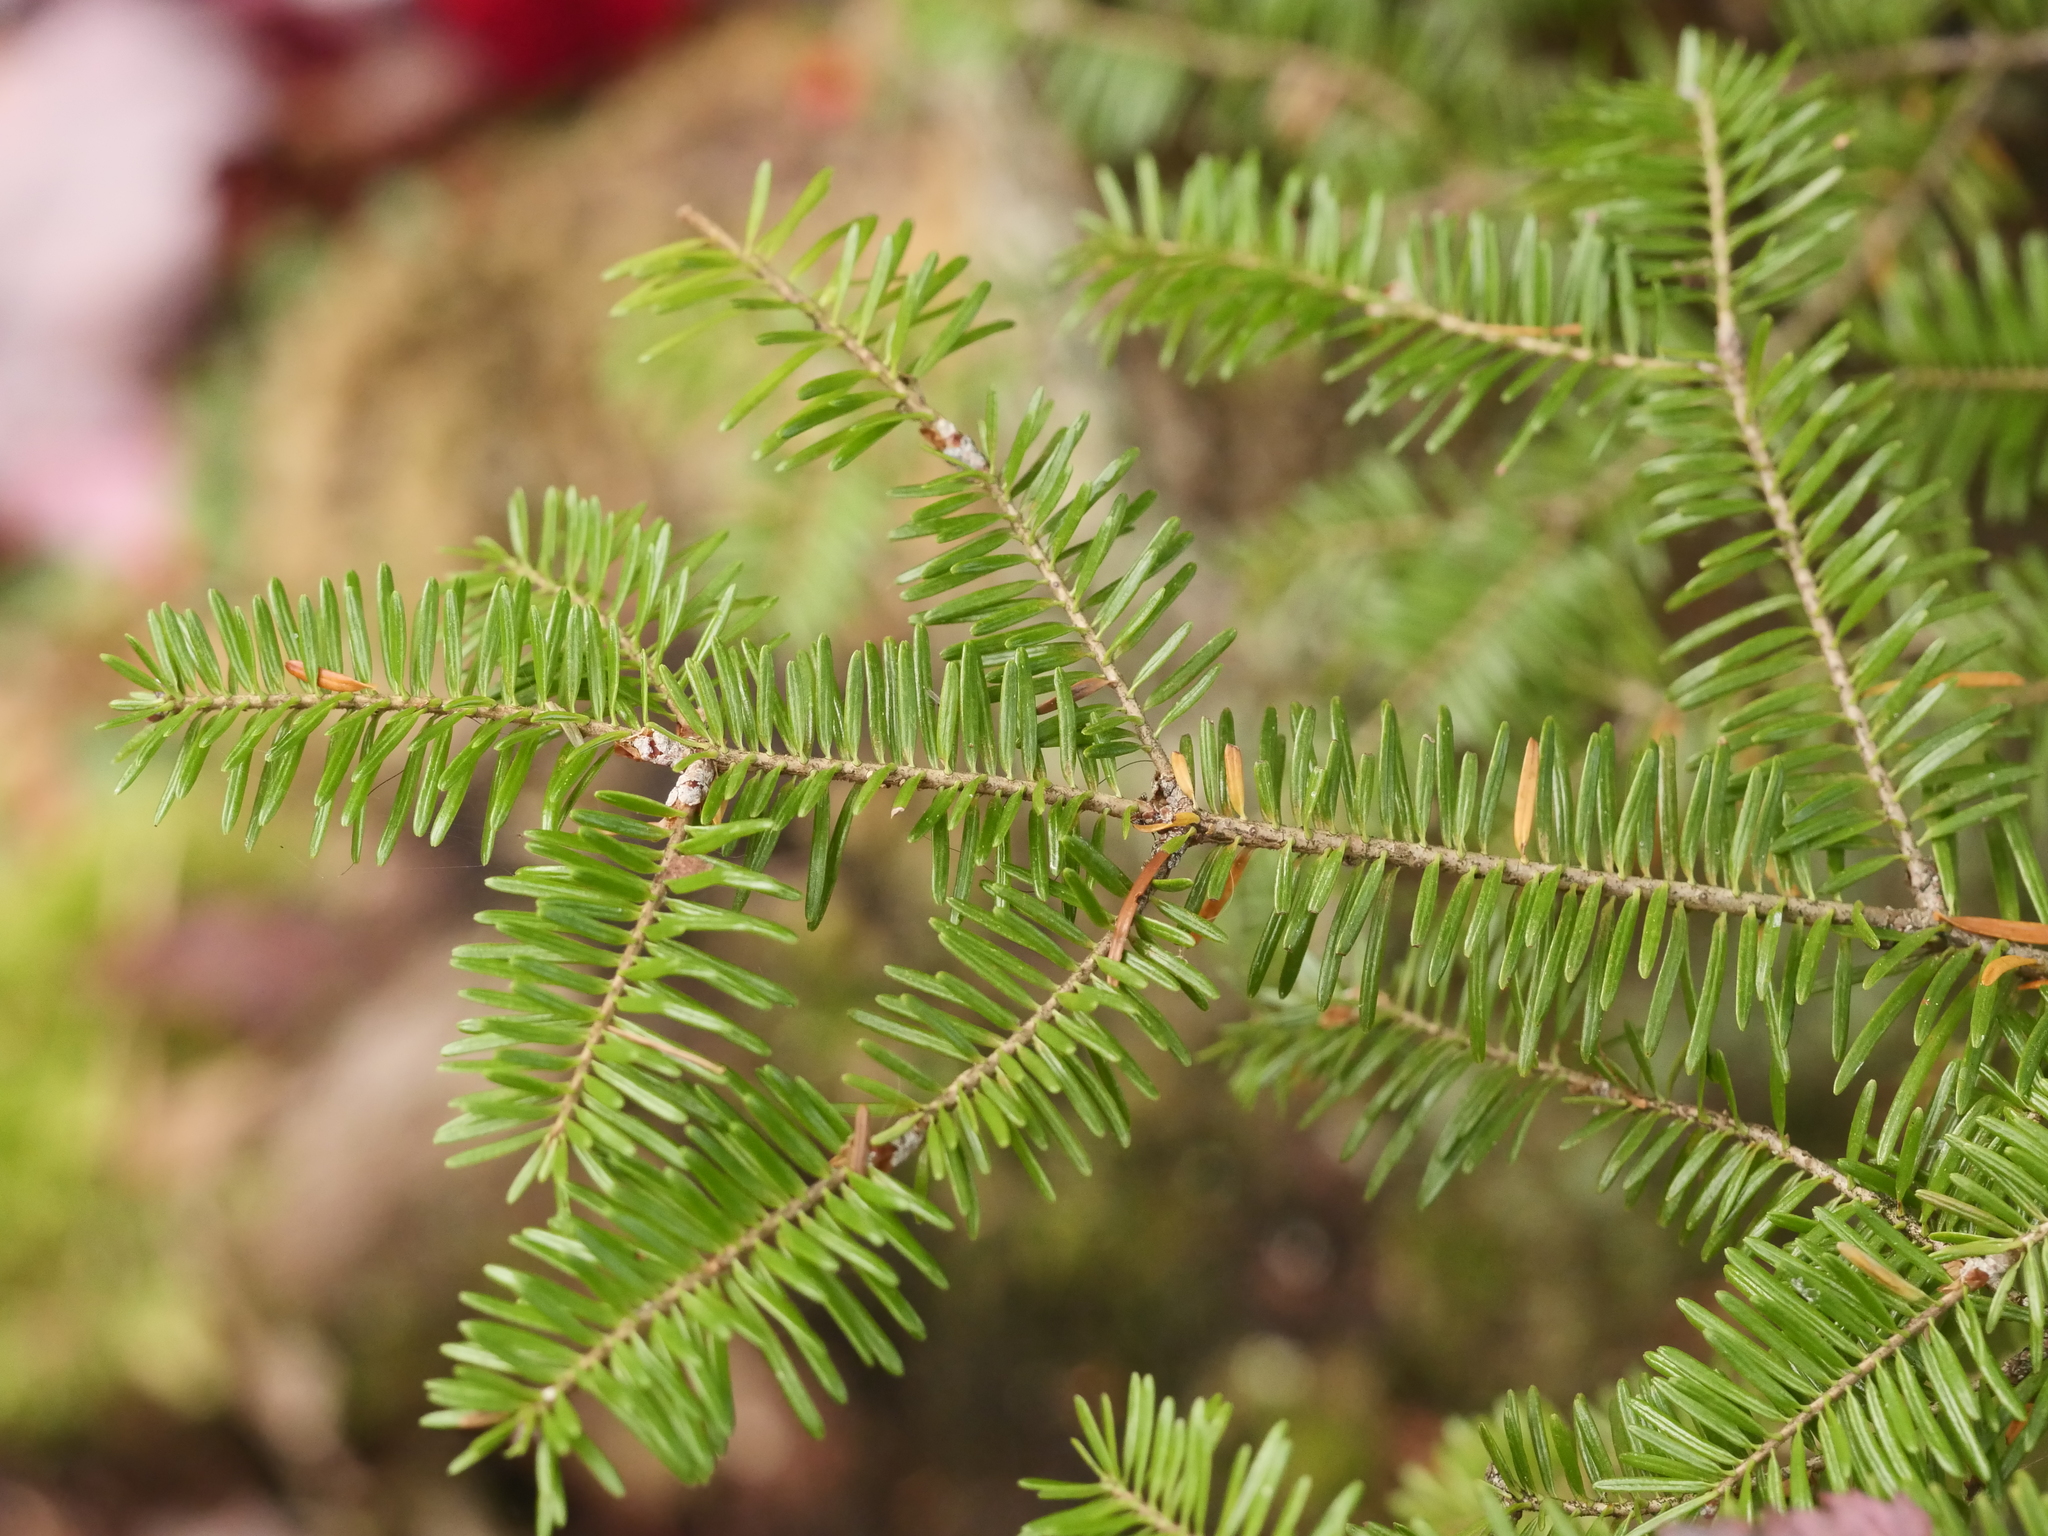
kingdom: Plantae
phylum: Tracheophyta
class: Pinopsida
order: Pinales
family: Pinaceae
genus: Abies
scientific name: Abies balsamea
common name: Balsam fir
